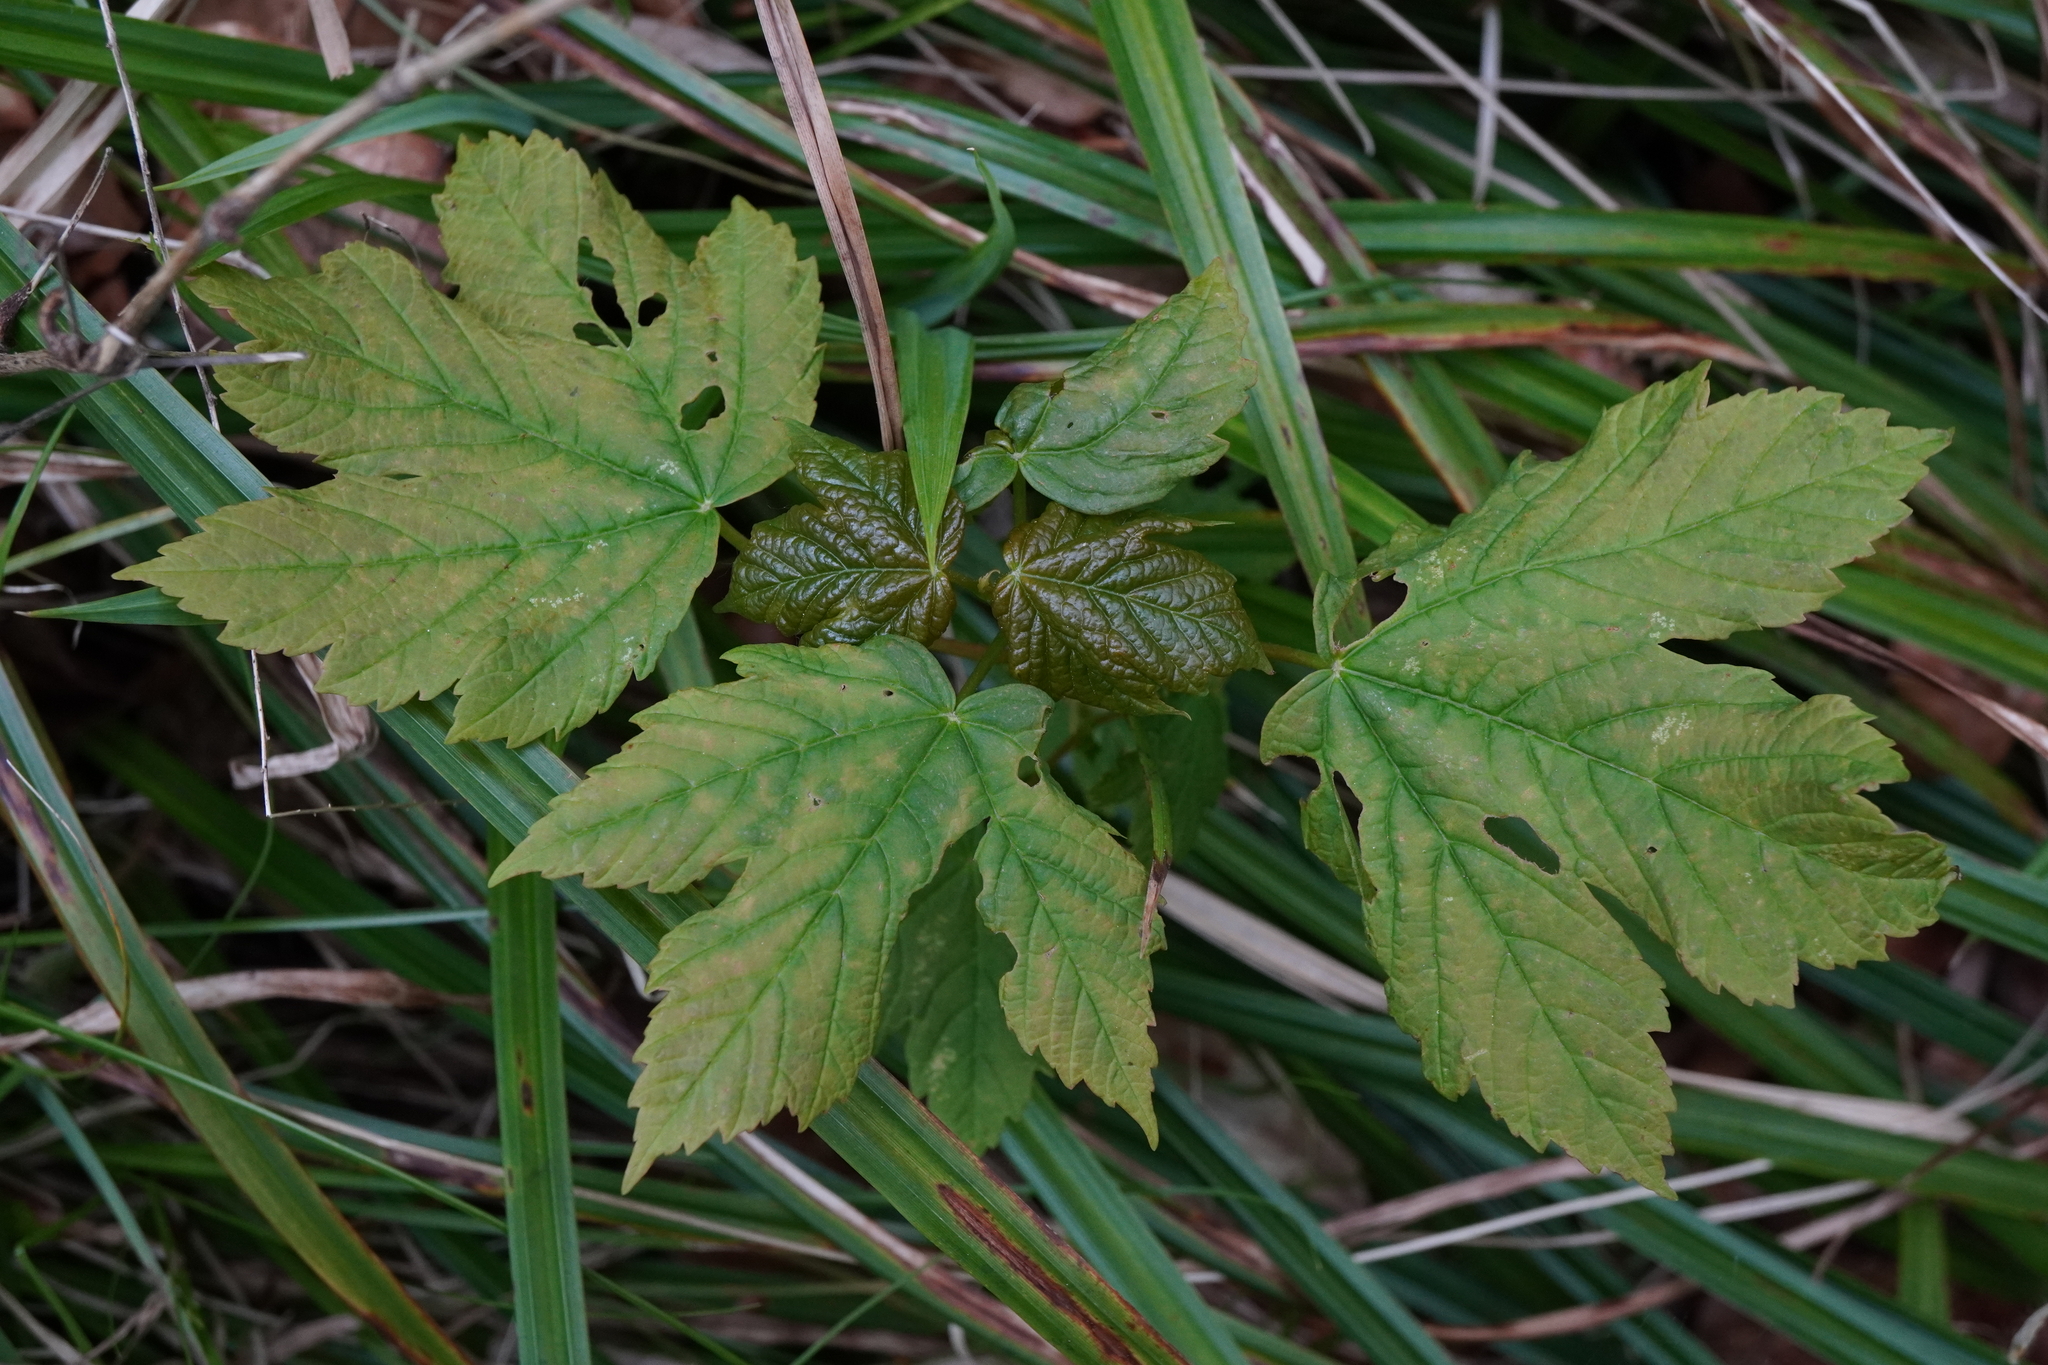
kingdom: Plantae
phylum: Tracheophyta
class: Magnoliopsida
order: Sapindales
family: Sapindaceae
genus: Acer
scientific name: Acer pseudoplatanus
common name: Sycamore
